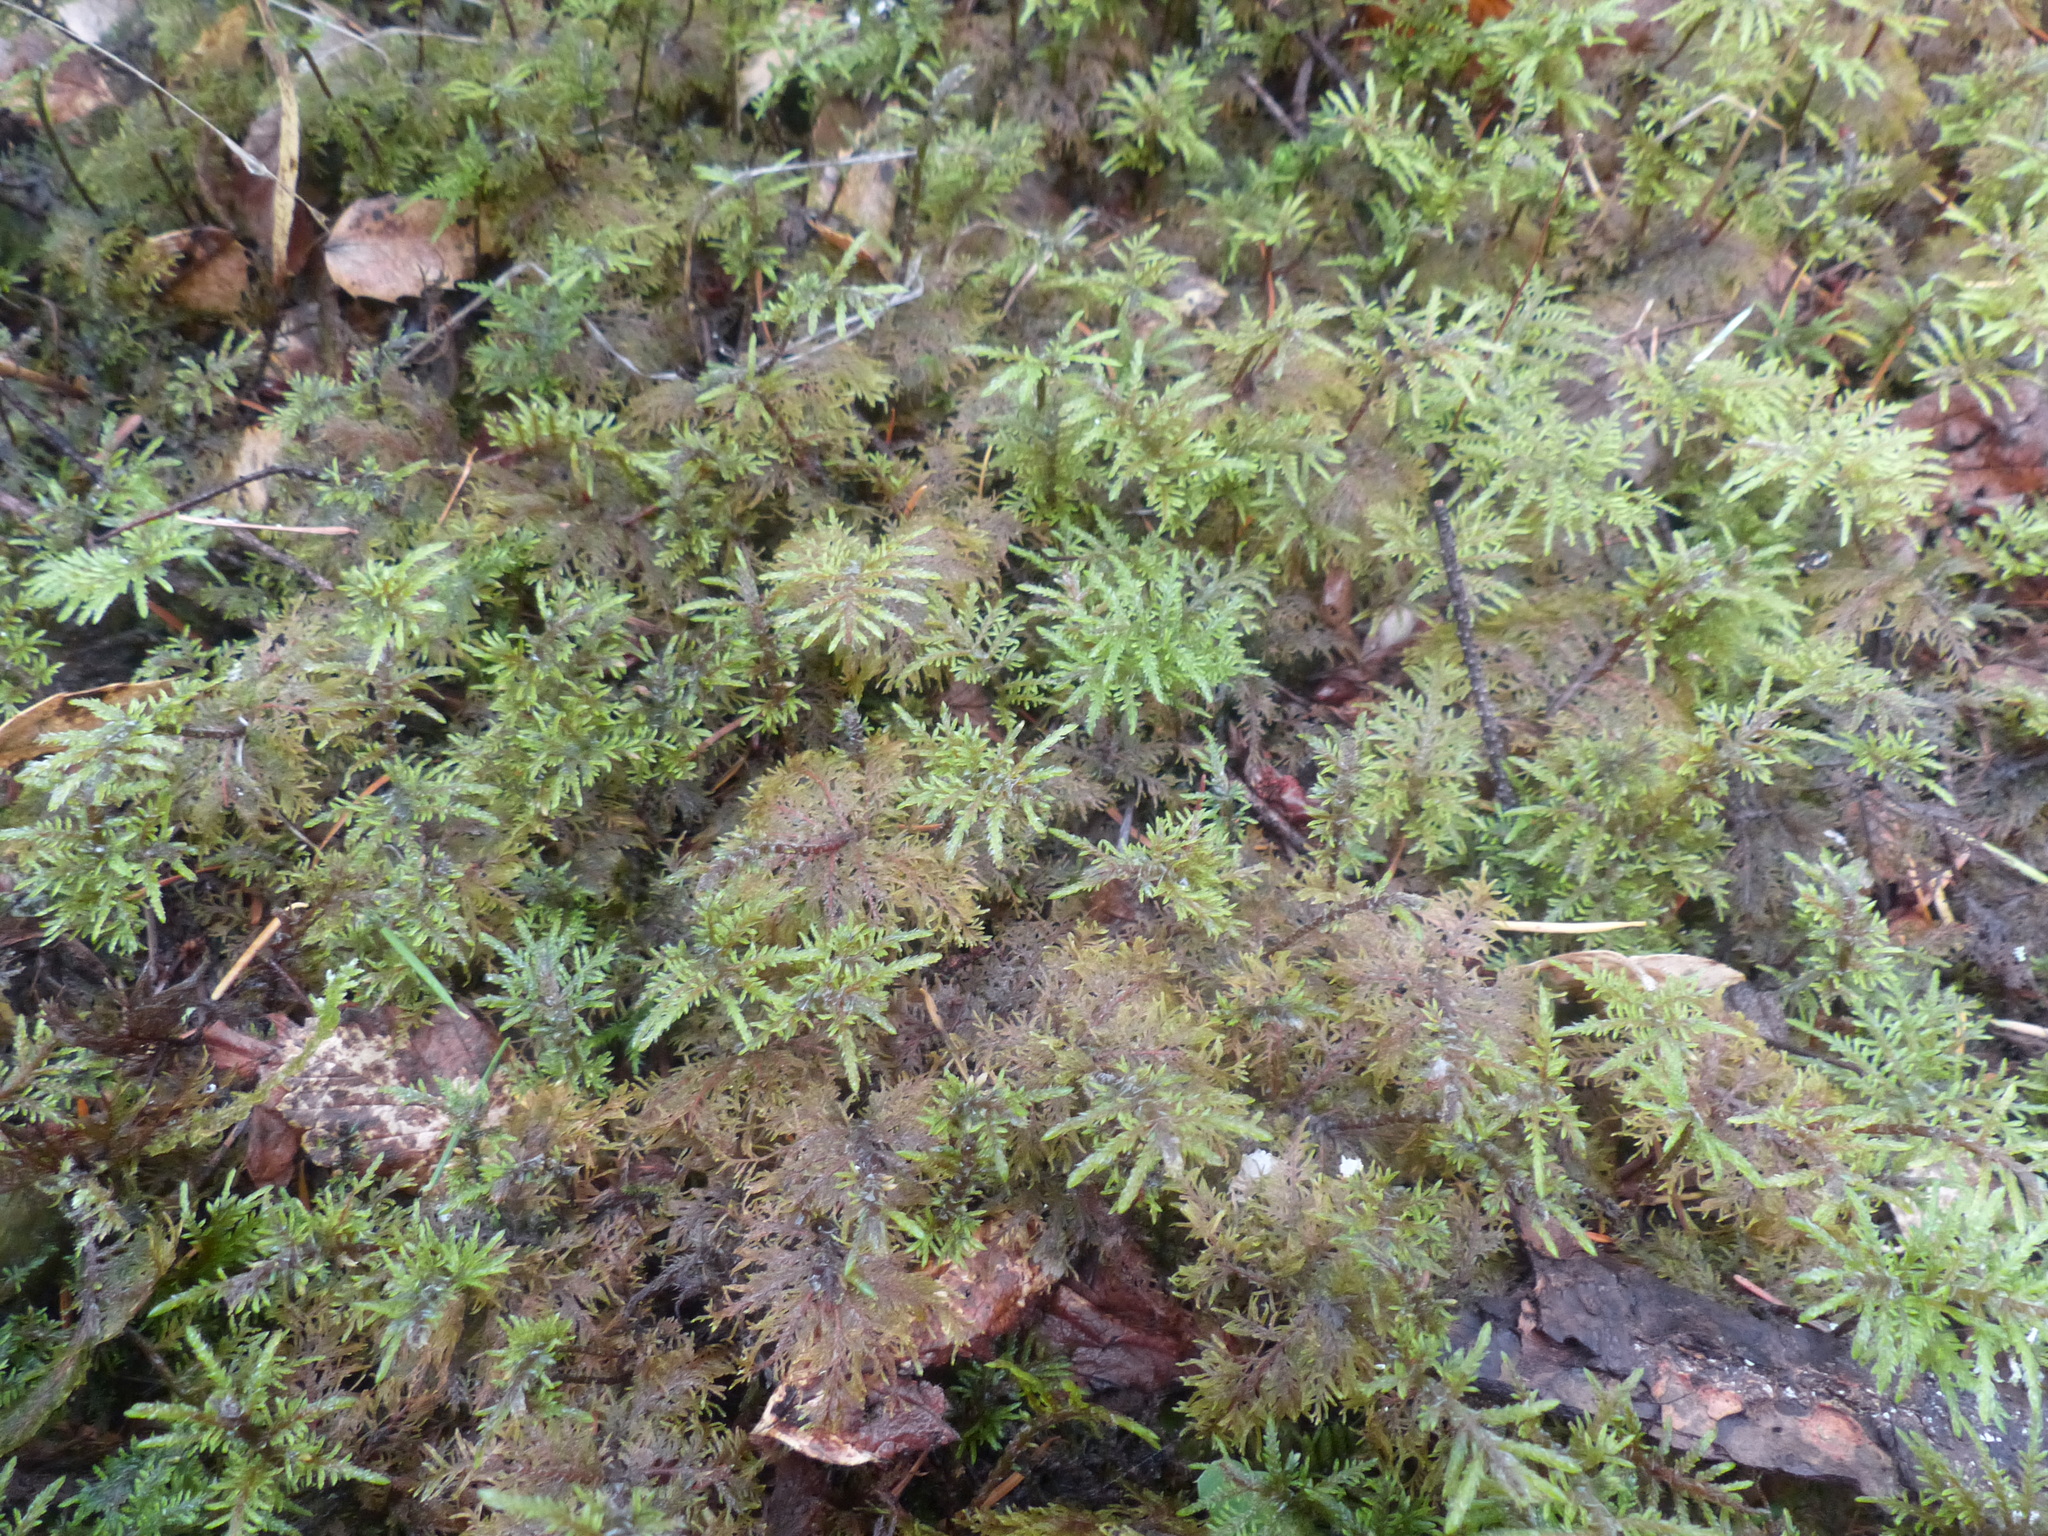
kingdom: Plantae
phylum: Bryophyta
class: Bryopsida
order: Hypnales
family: Hylocomiaceae
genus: Hylocomium
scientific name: Hylocomium splendens
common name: Stairstep moss
